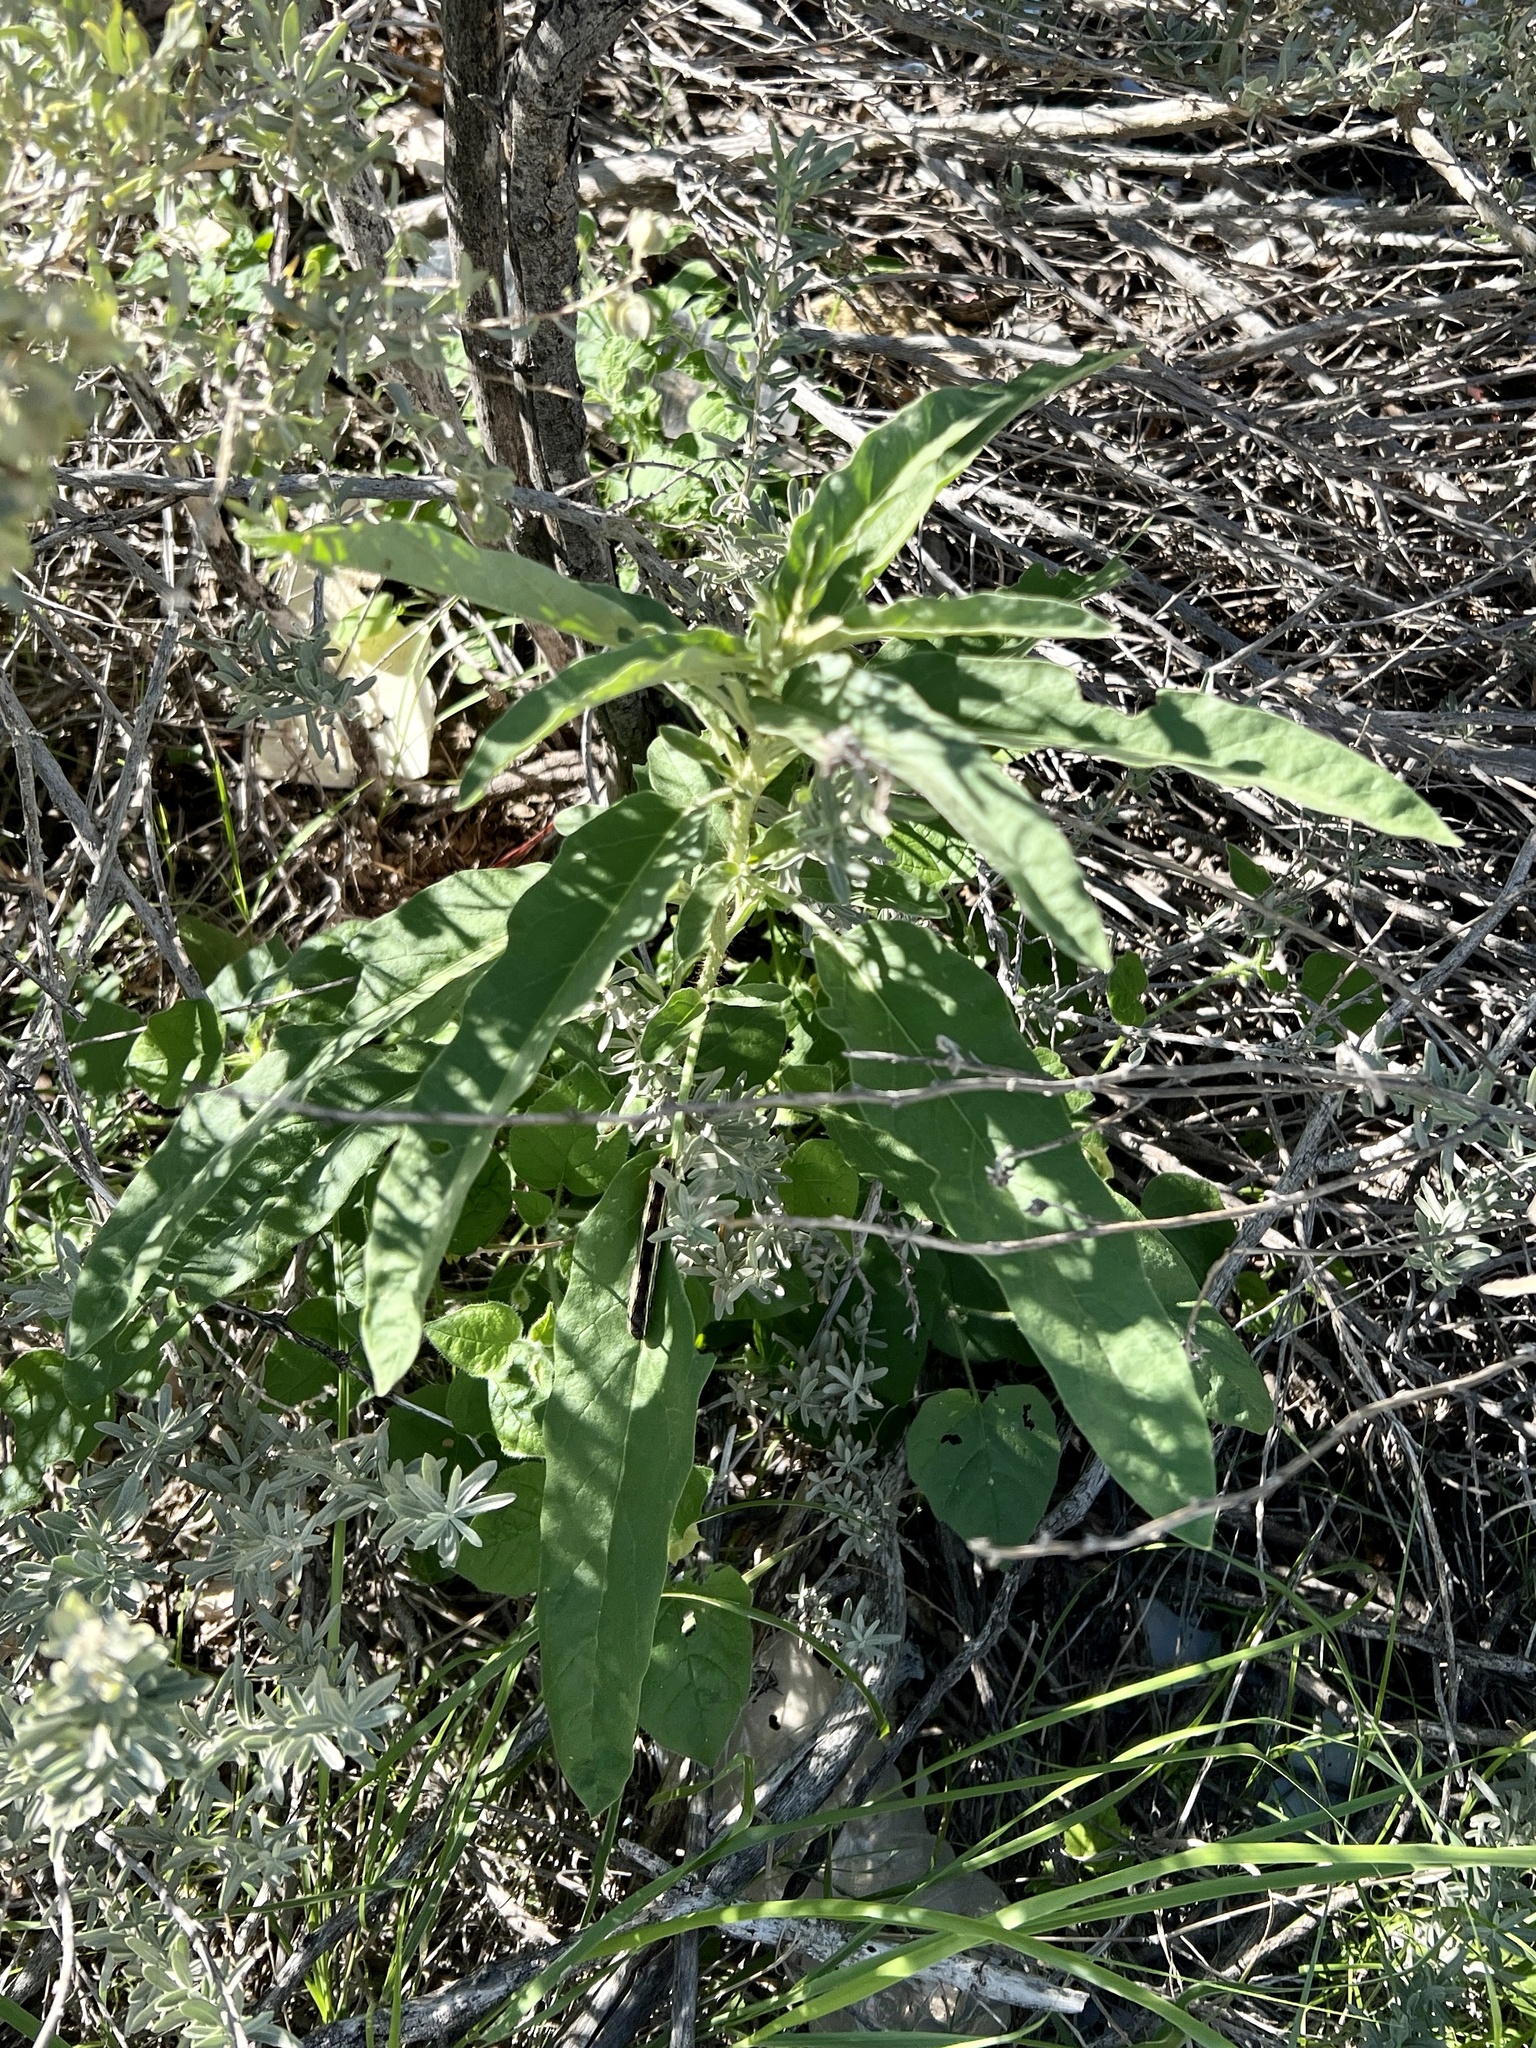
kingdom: Plantae
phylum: Tracheophyta
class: Magnoliopsida
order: Solanales
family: Solanaceae
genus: Solanum
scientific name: Solanum elaeagnifolium
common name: Silverleaf nightshade
